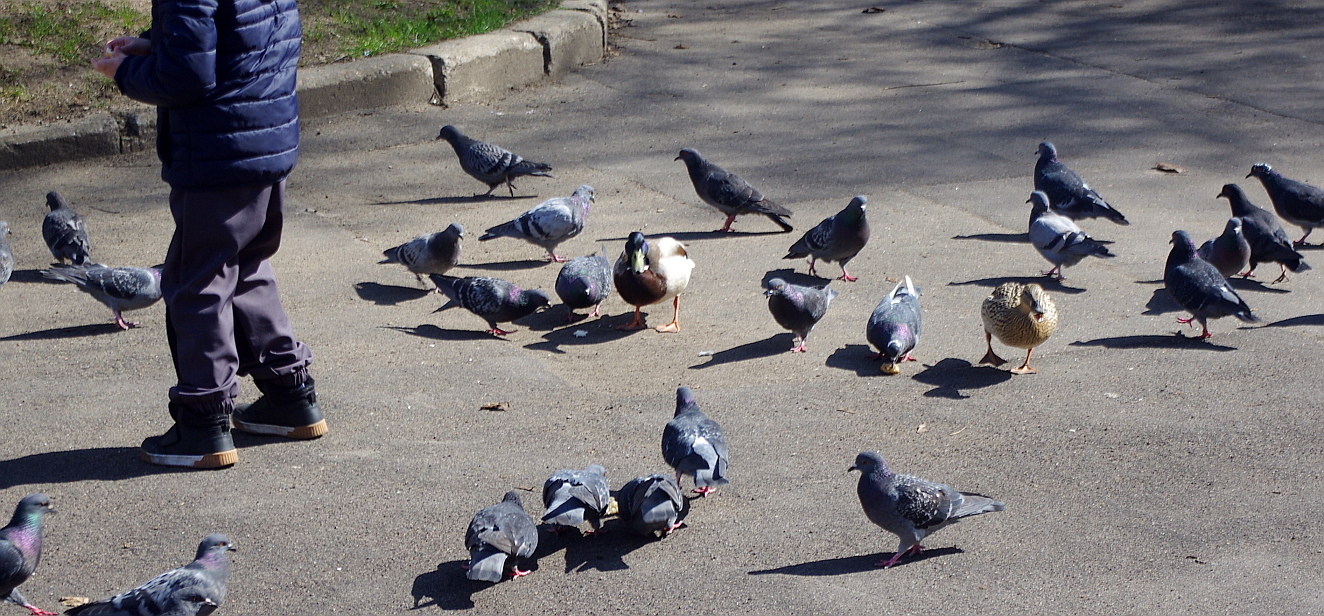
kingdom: Animalia
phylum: Chordata
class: Aves
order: Columbiformes
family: Columbidae
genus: Columba
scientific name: Columba livia
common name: Rock pigeon
